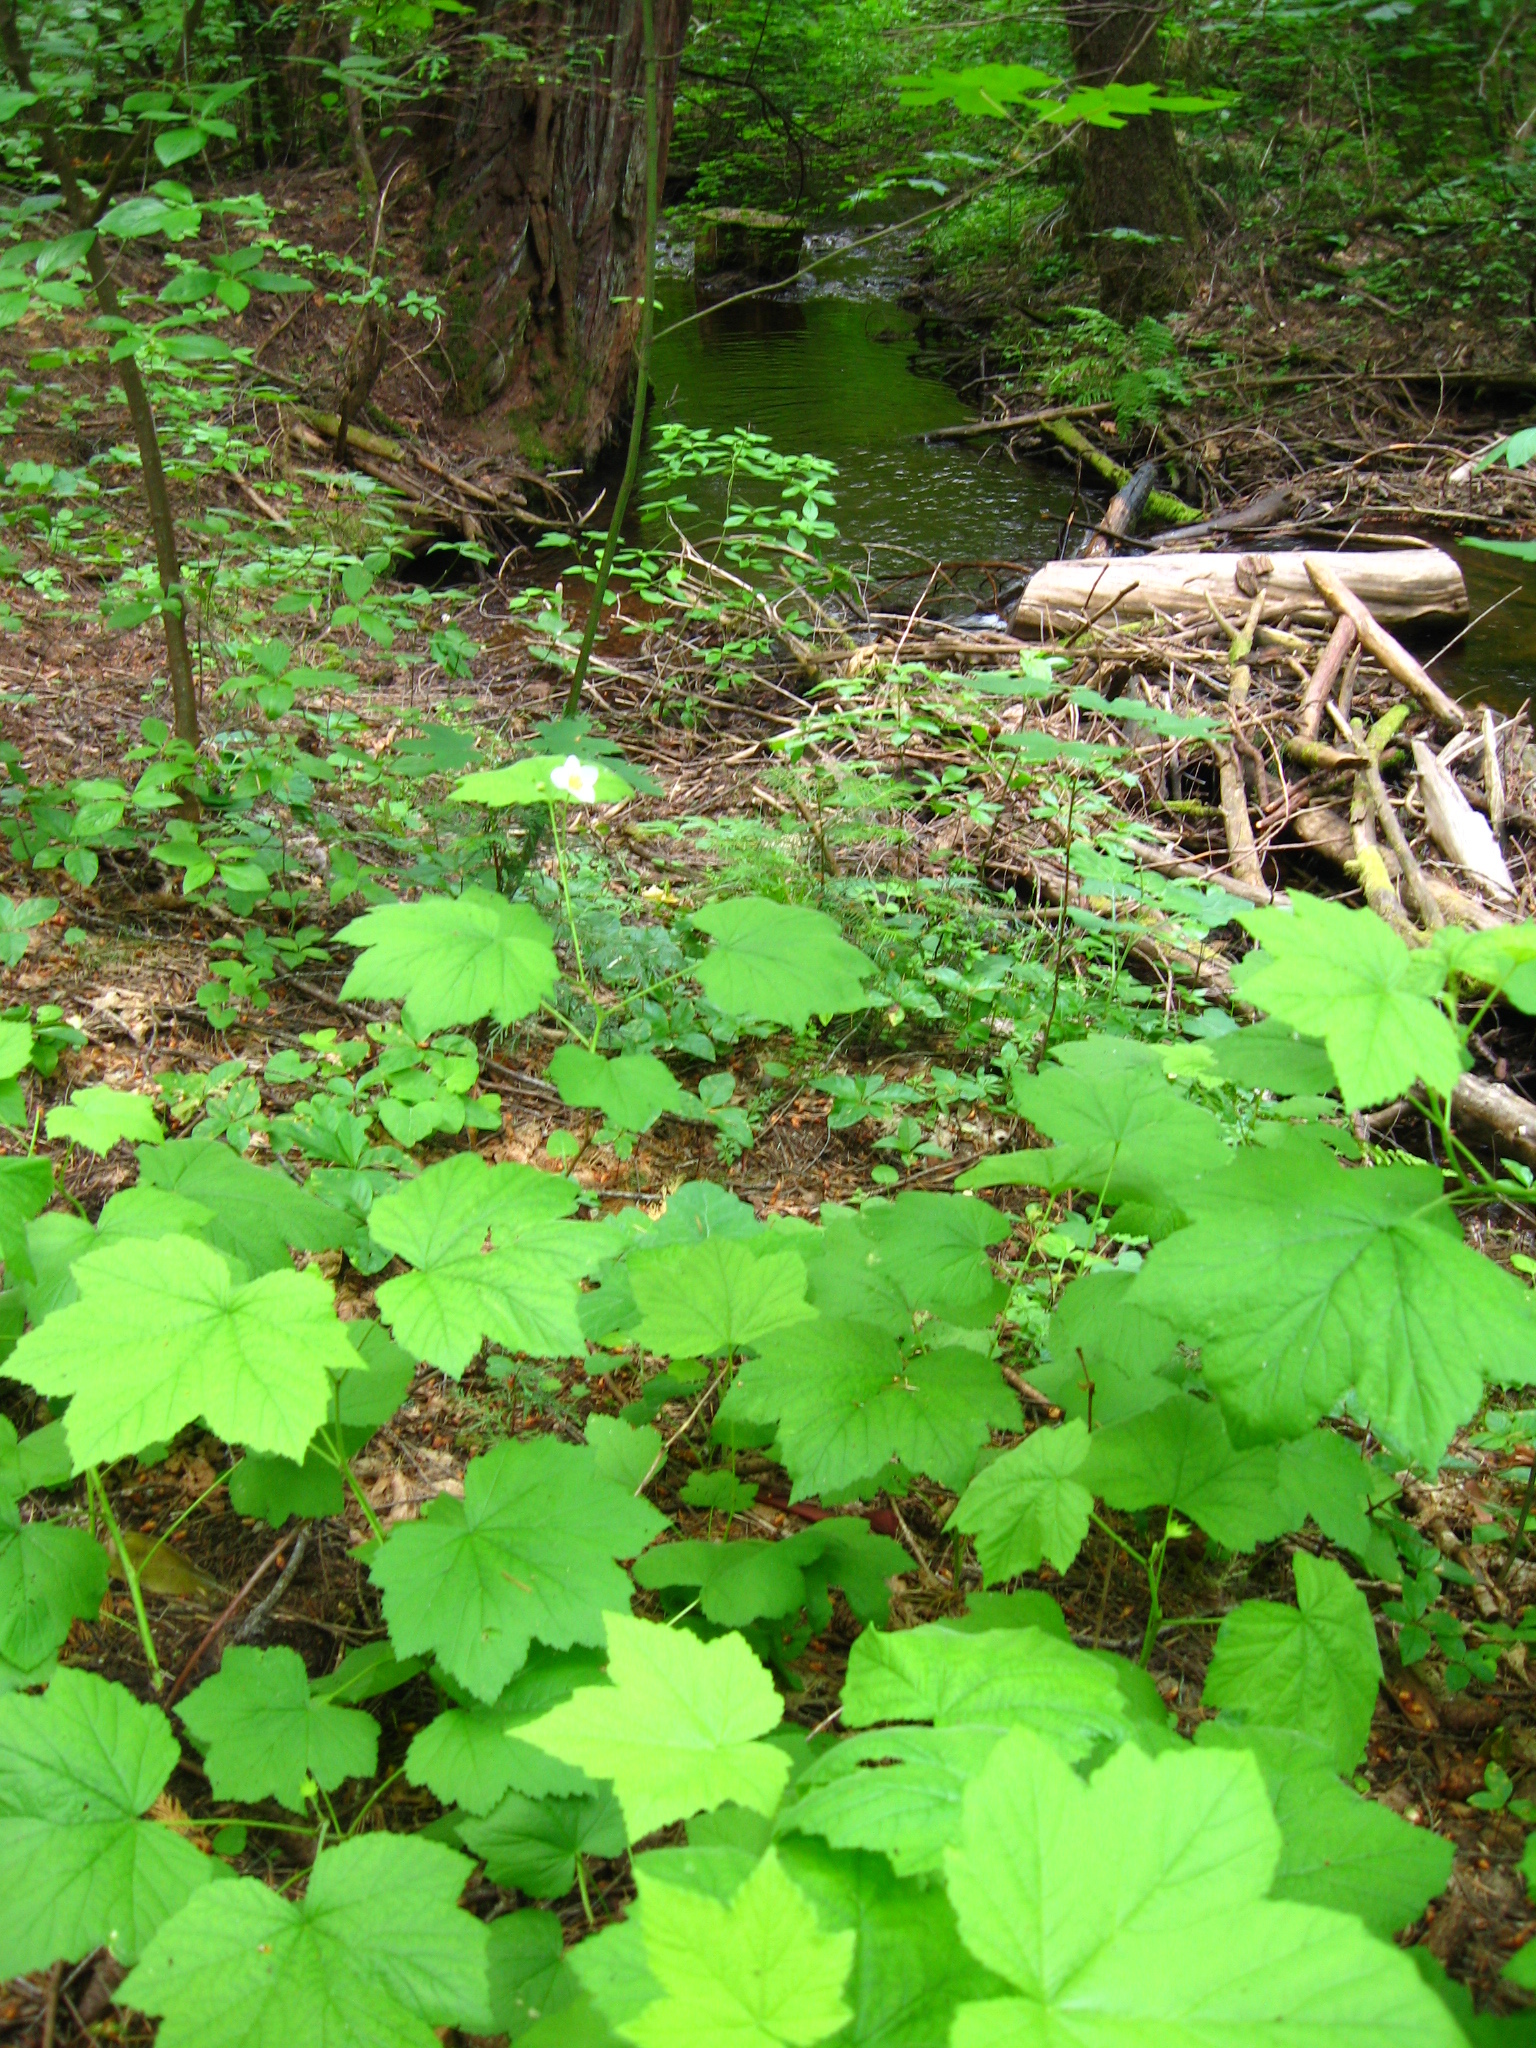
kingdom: Plantae
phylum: Tracheophyta
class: Magnoliopsida
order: Rosales
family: Rosaceae
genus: Rubus
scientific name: Rubus parviflorus
